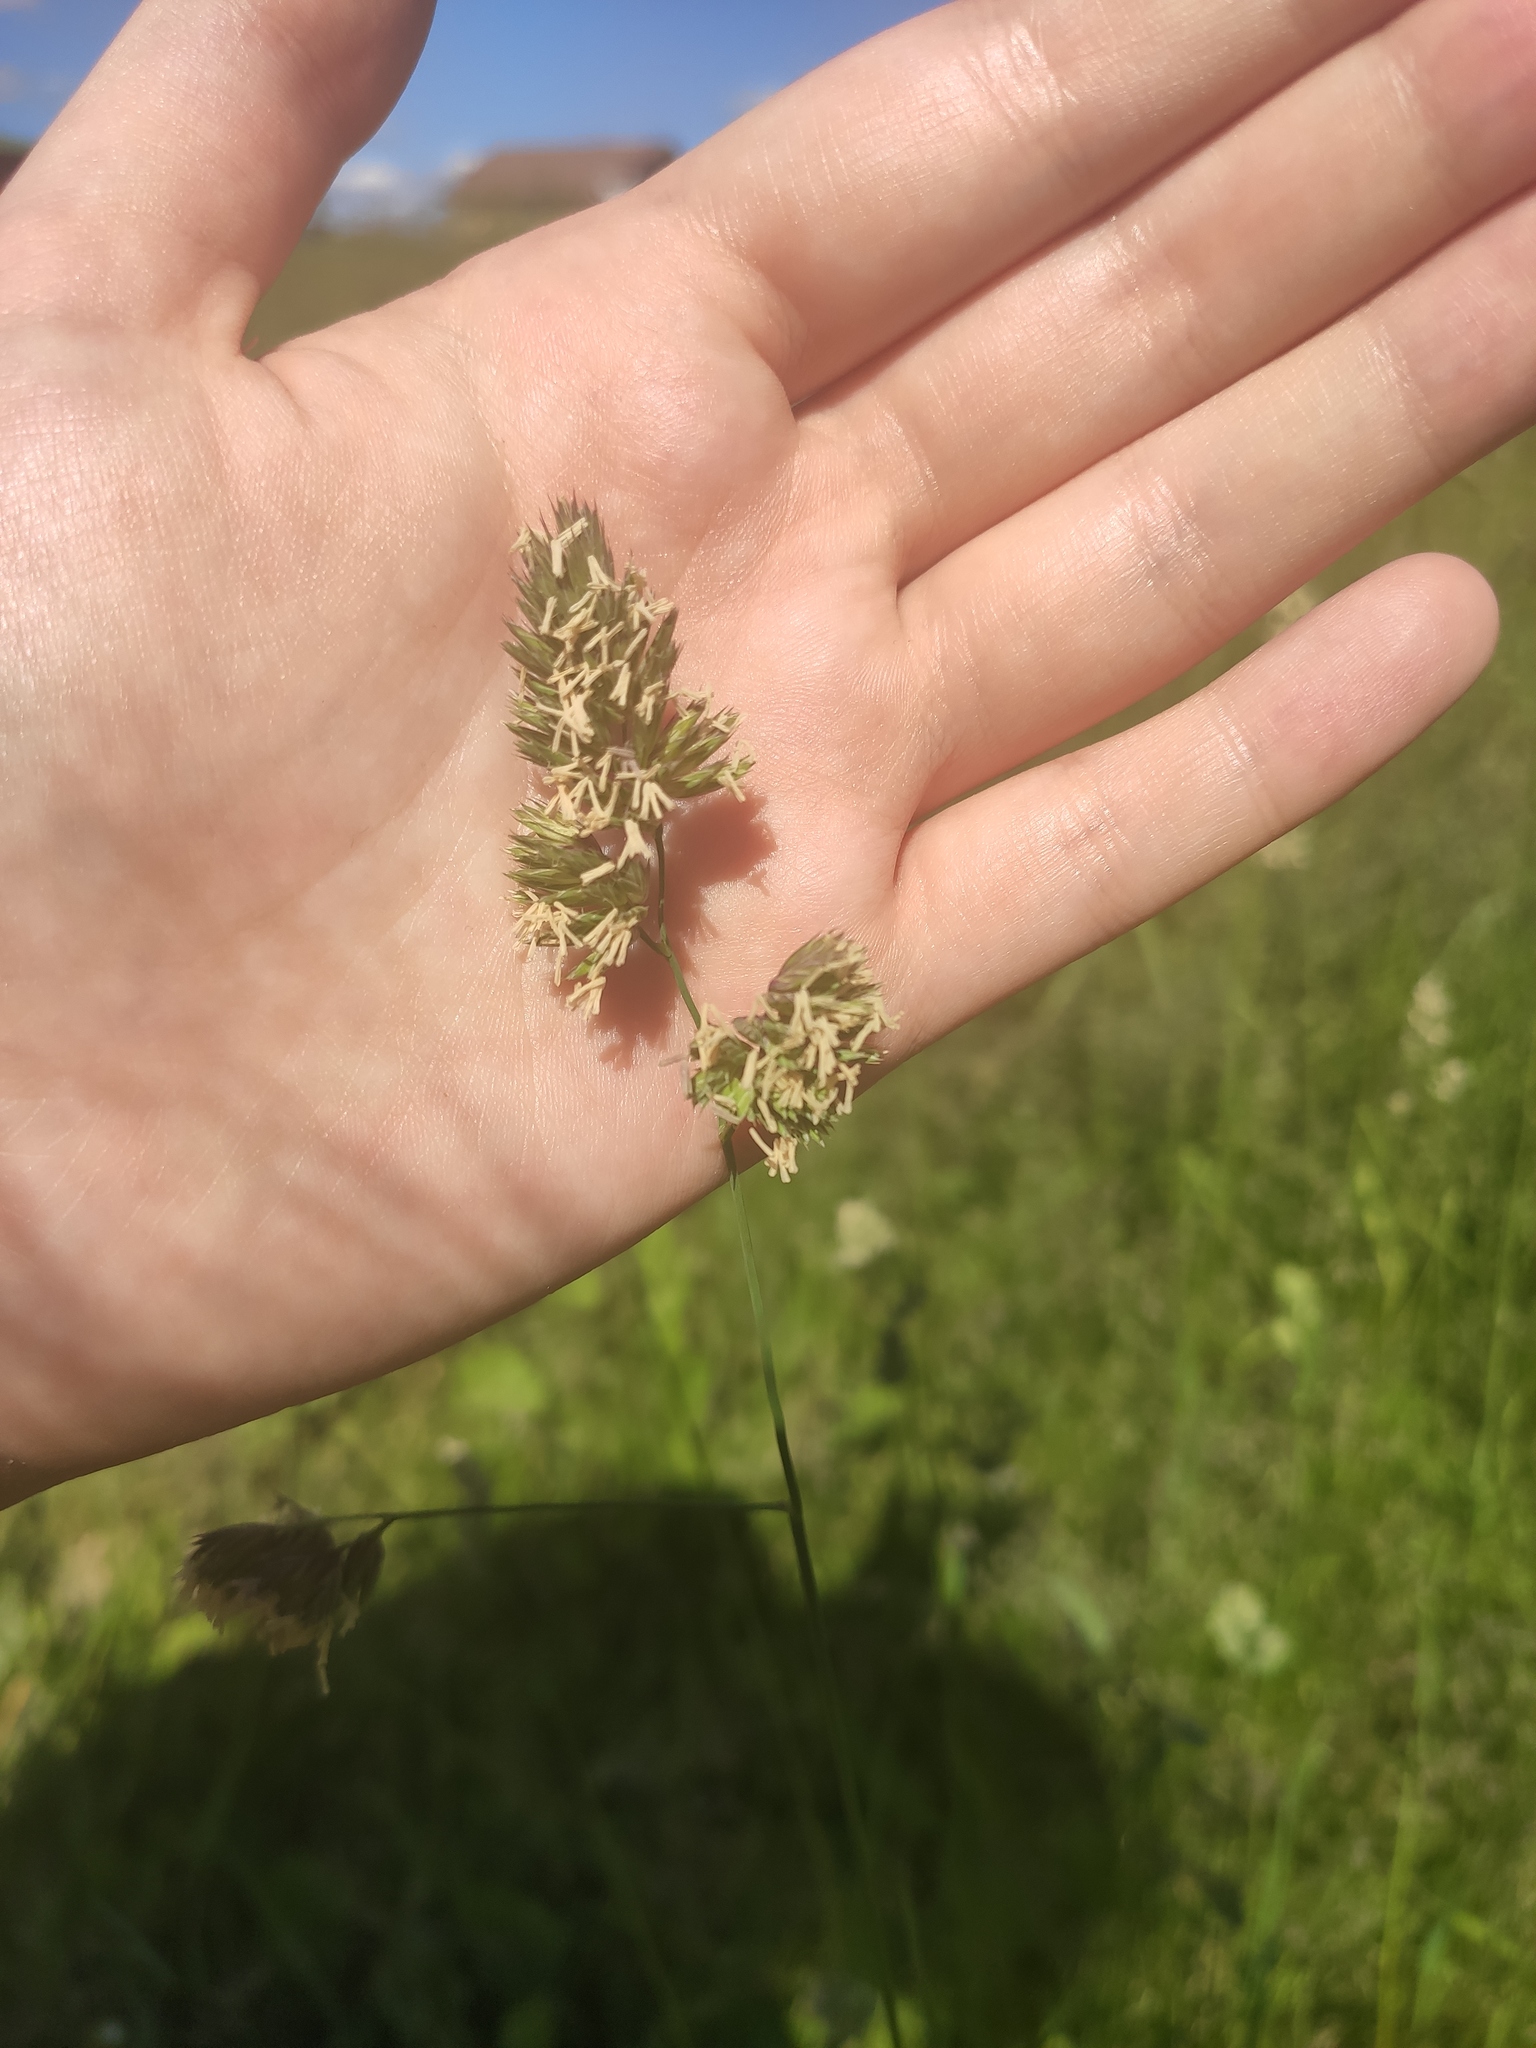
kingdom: Plantae
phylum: Tracheophyta
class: Liliopsida
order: Poales
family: Poaceae
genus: Dactylis
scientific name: Dactylis glomerata
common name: Orchardgrass
